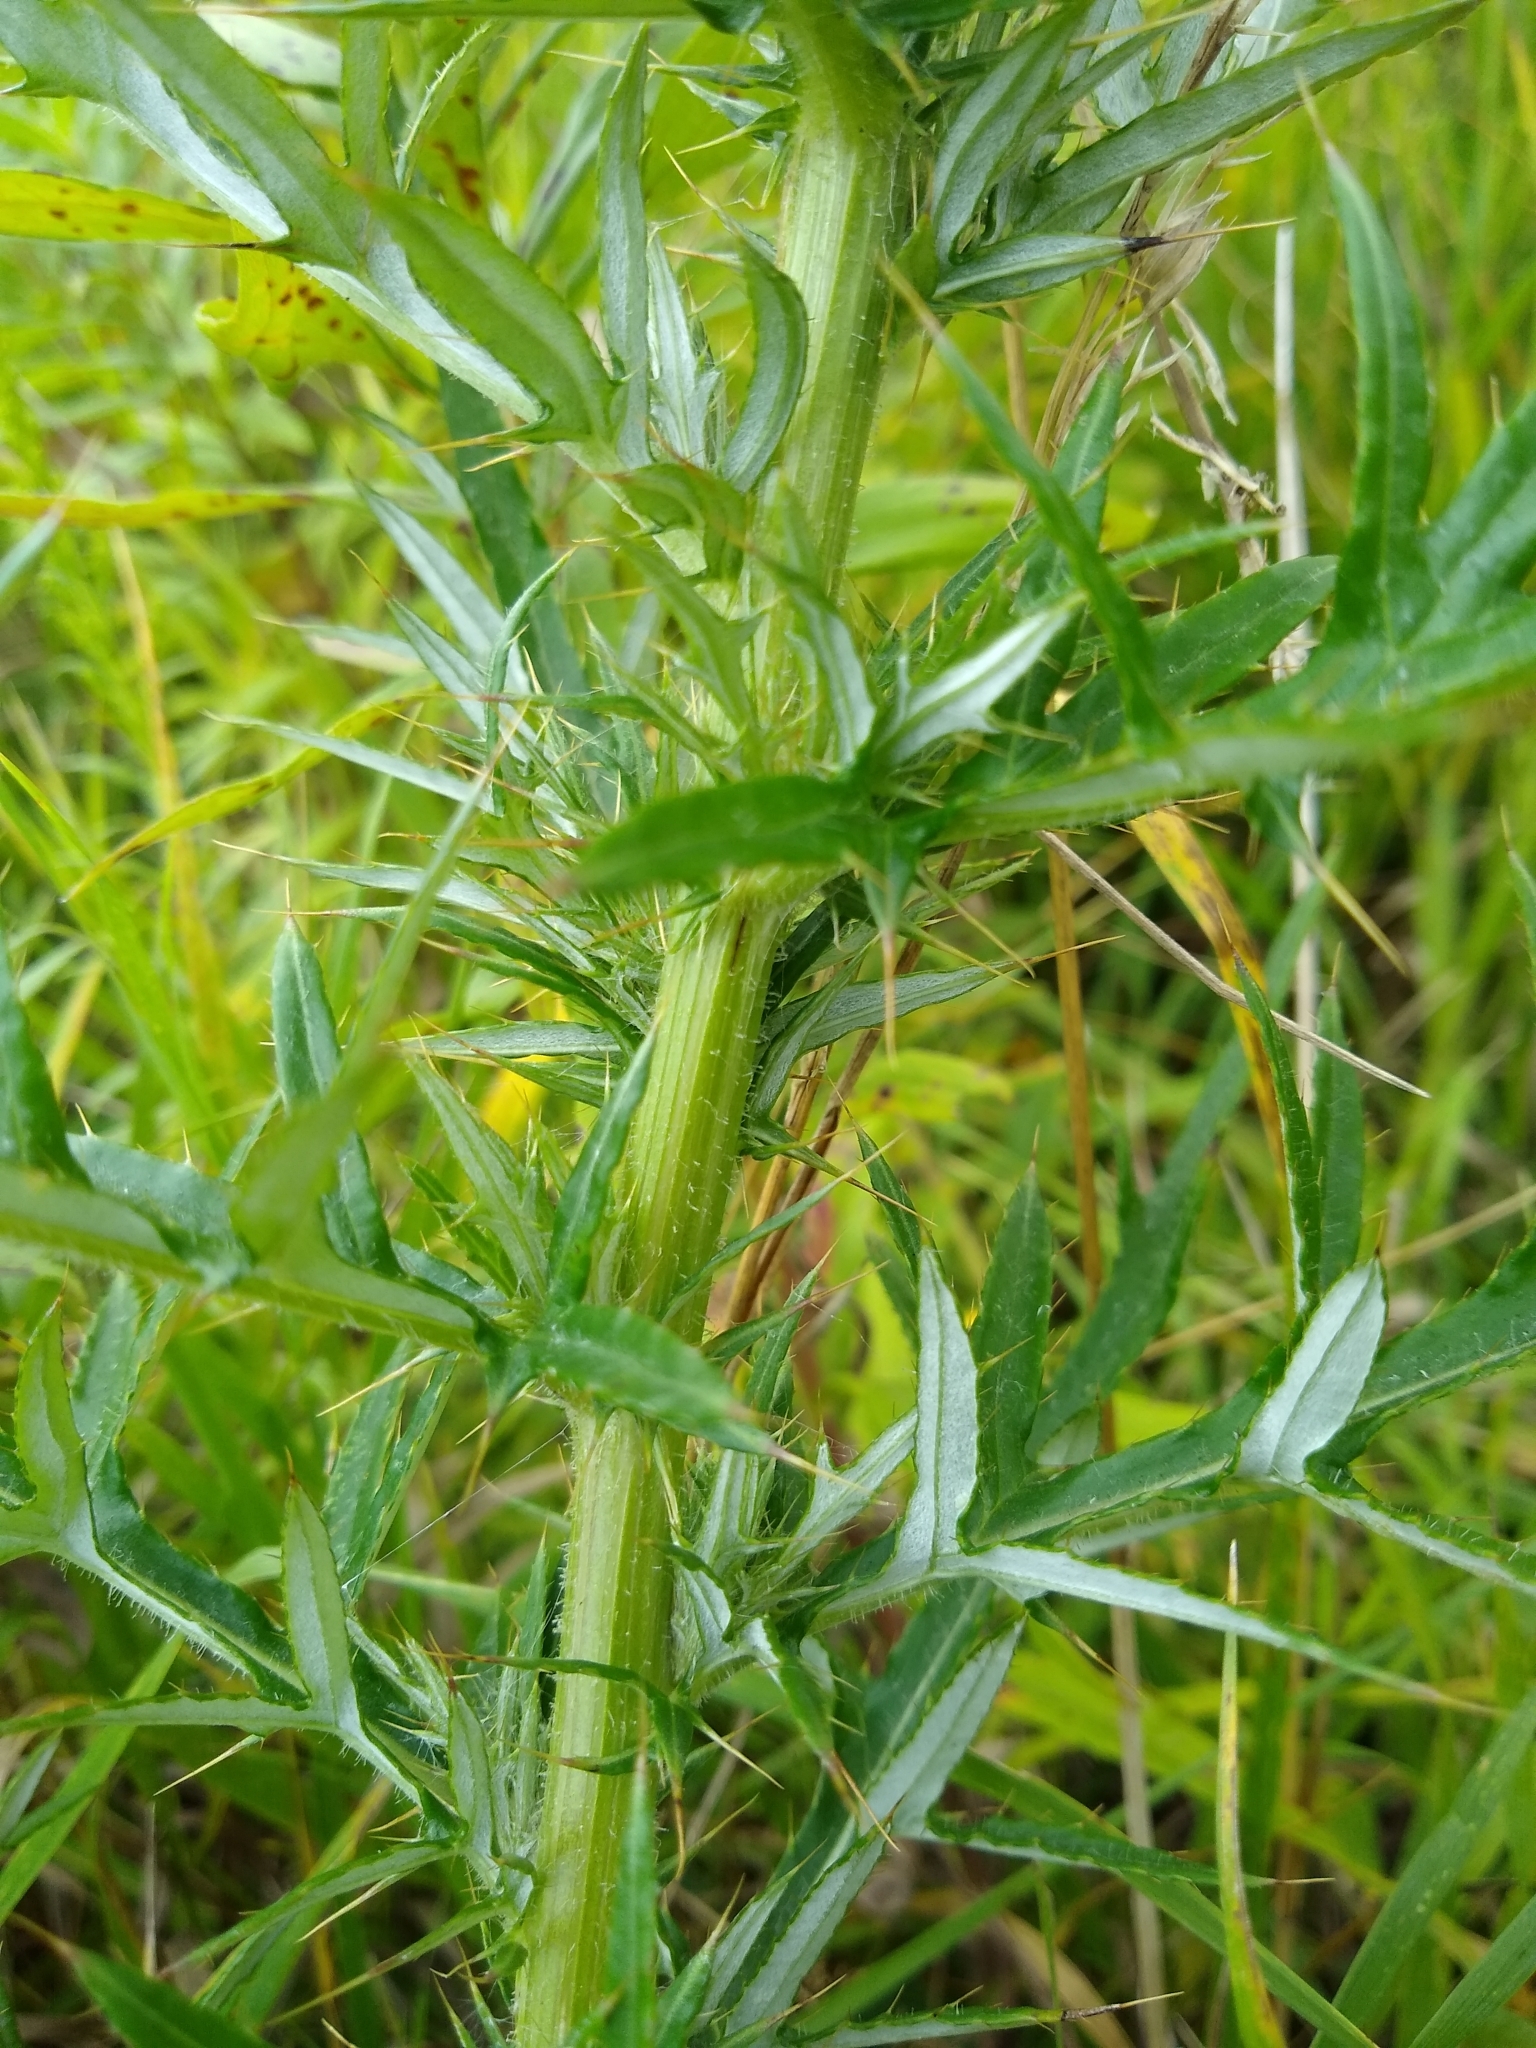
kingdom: Plantae
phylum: Tracheophyta
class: Magnoliopsida
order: Asterales
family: Asteraceae
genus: Cirsium
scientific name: Cirsium discolor
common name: Field thistle
